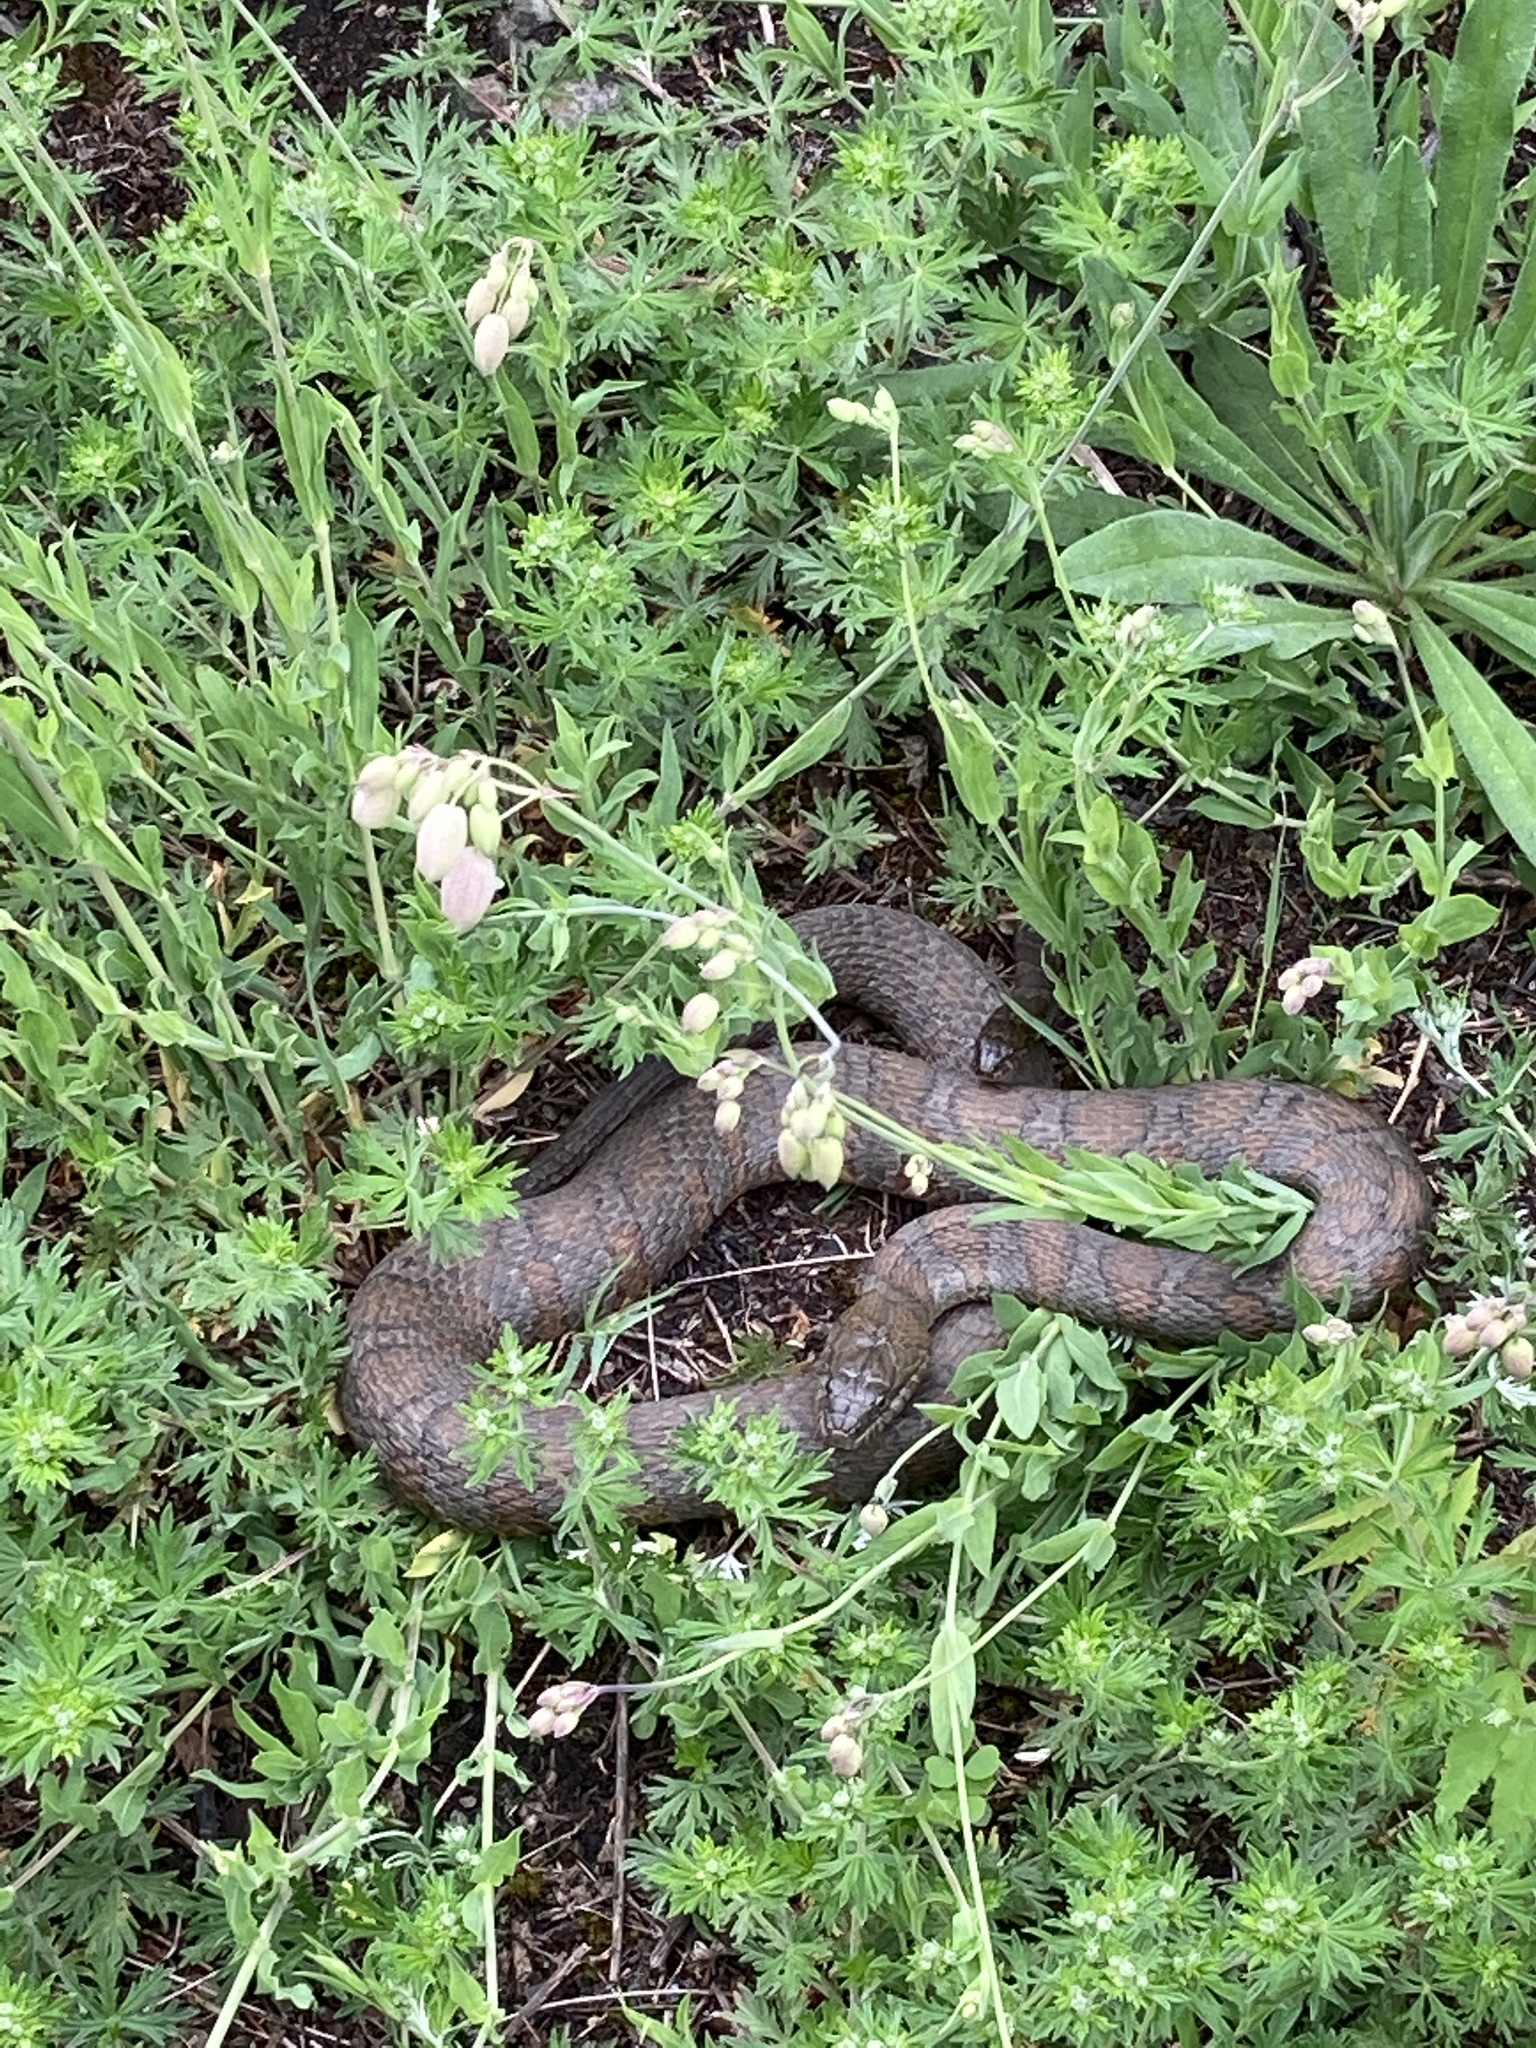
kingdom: Animalia
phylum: Chordata
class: Squamata
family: Colubridae
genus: Nerodia
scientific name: Nerodia sipedon
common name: Northern water snake
